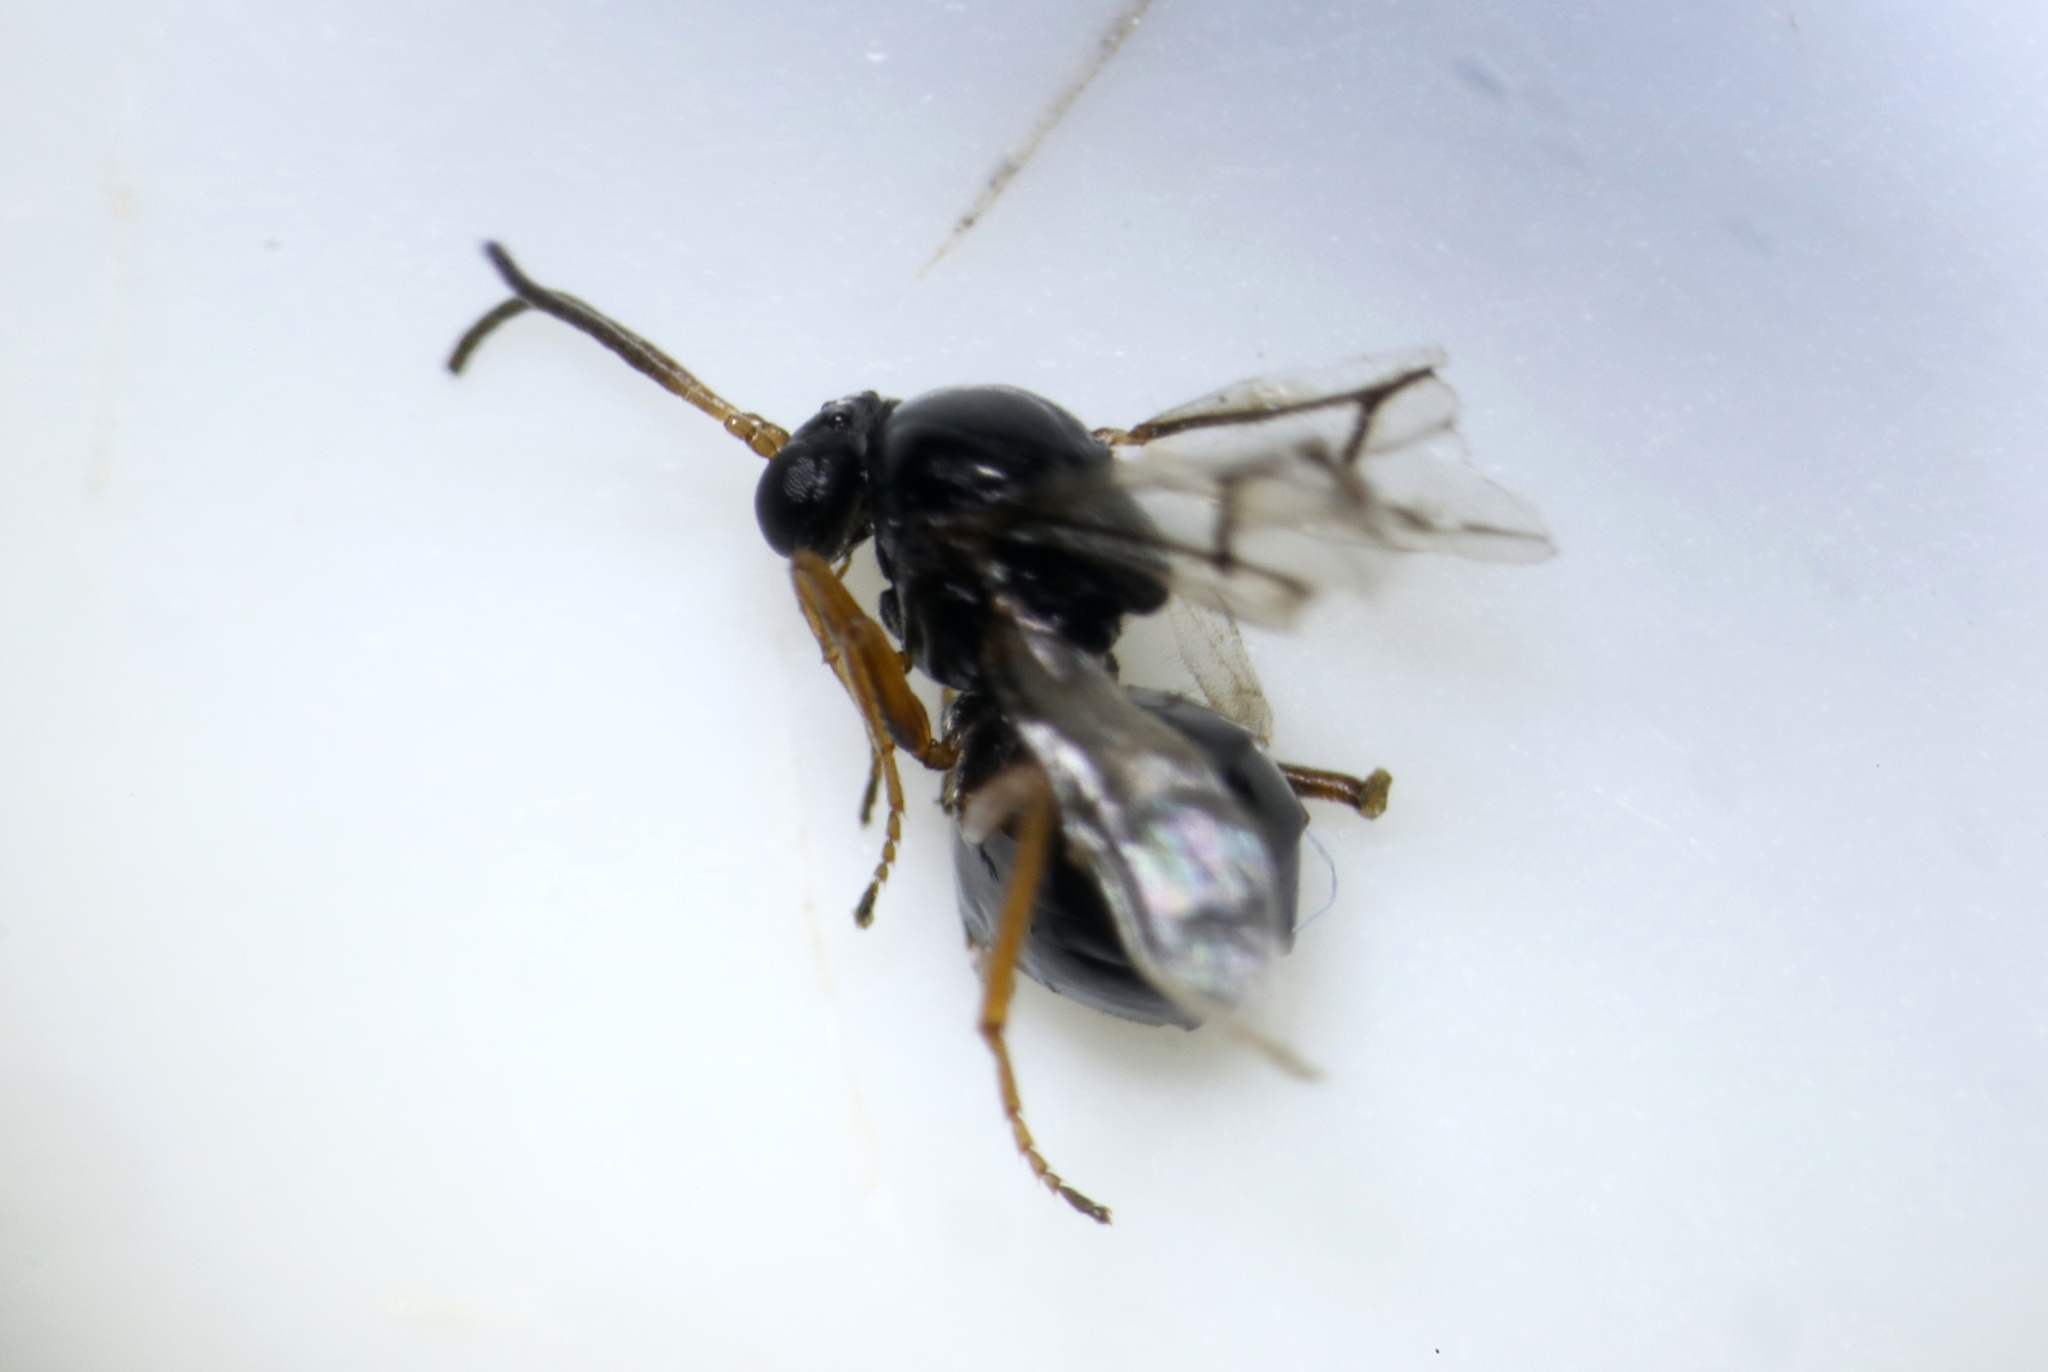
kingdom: Animalia
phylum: Arthropoda
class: Insecta
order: Hymenoptera
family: Cynipidae
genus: Neuroterus
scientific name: Neuroterus
